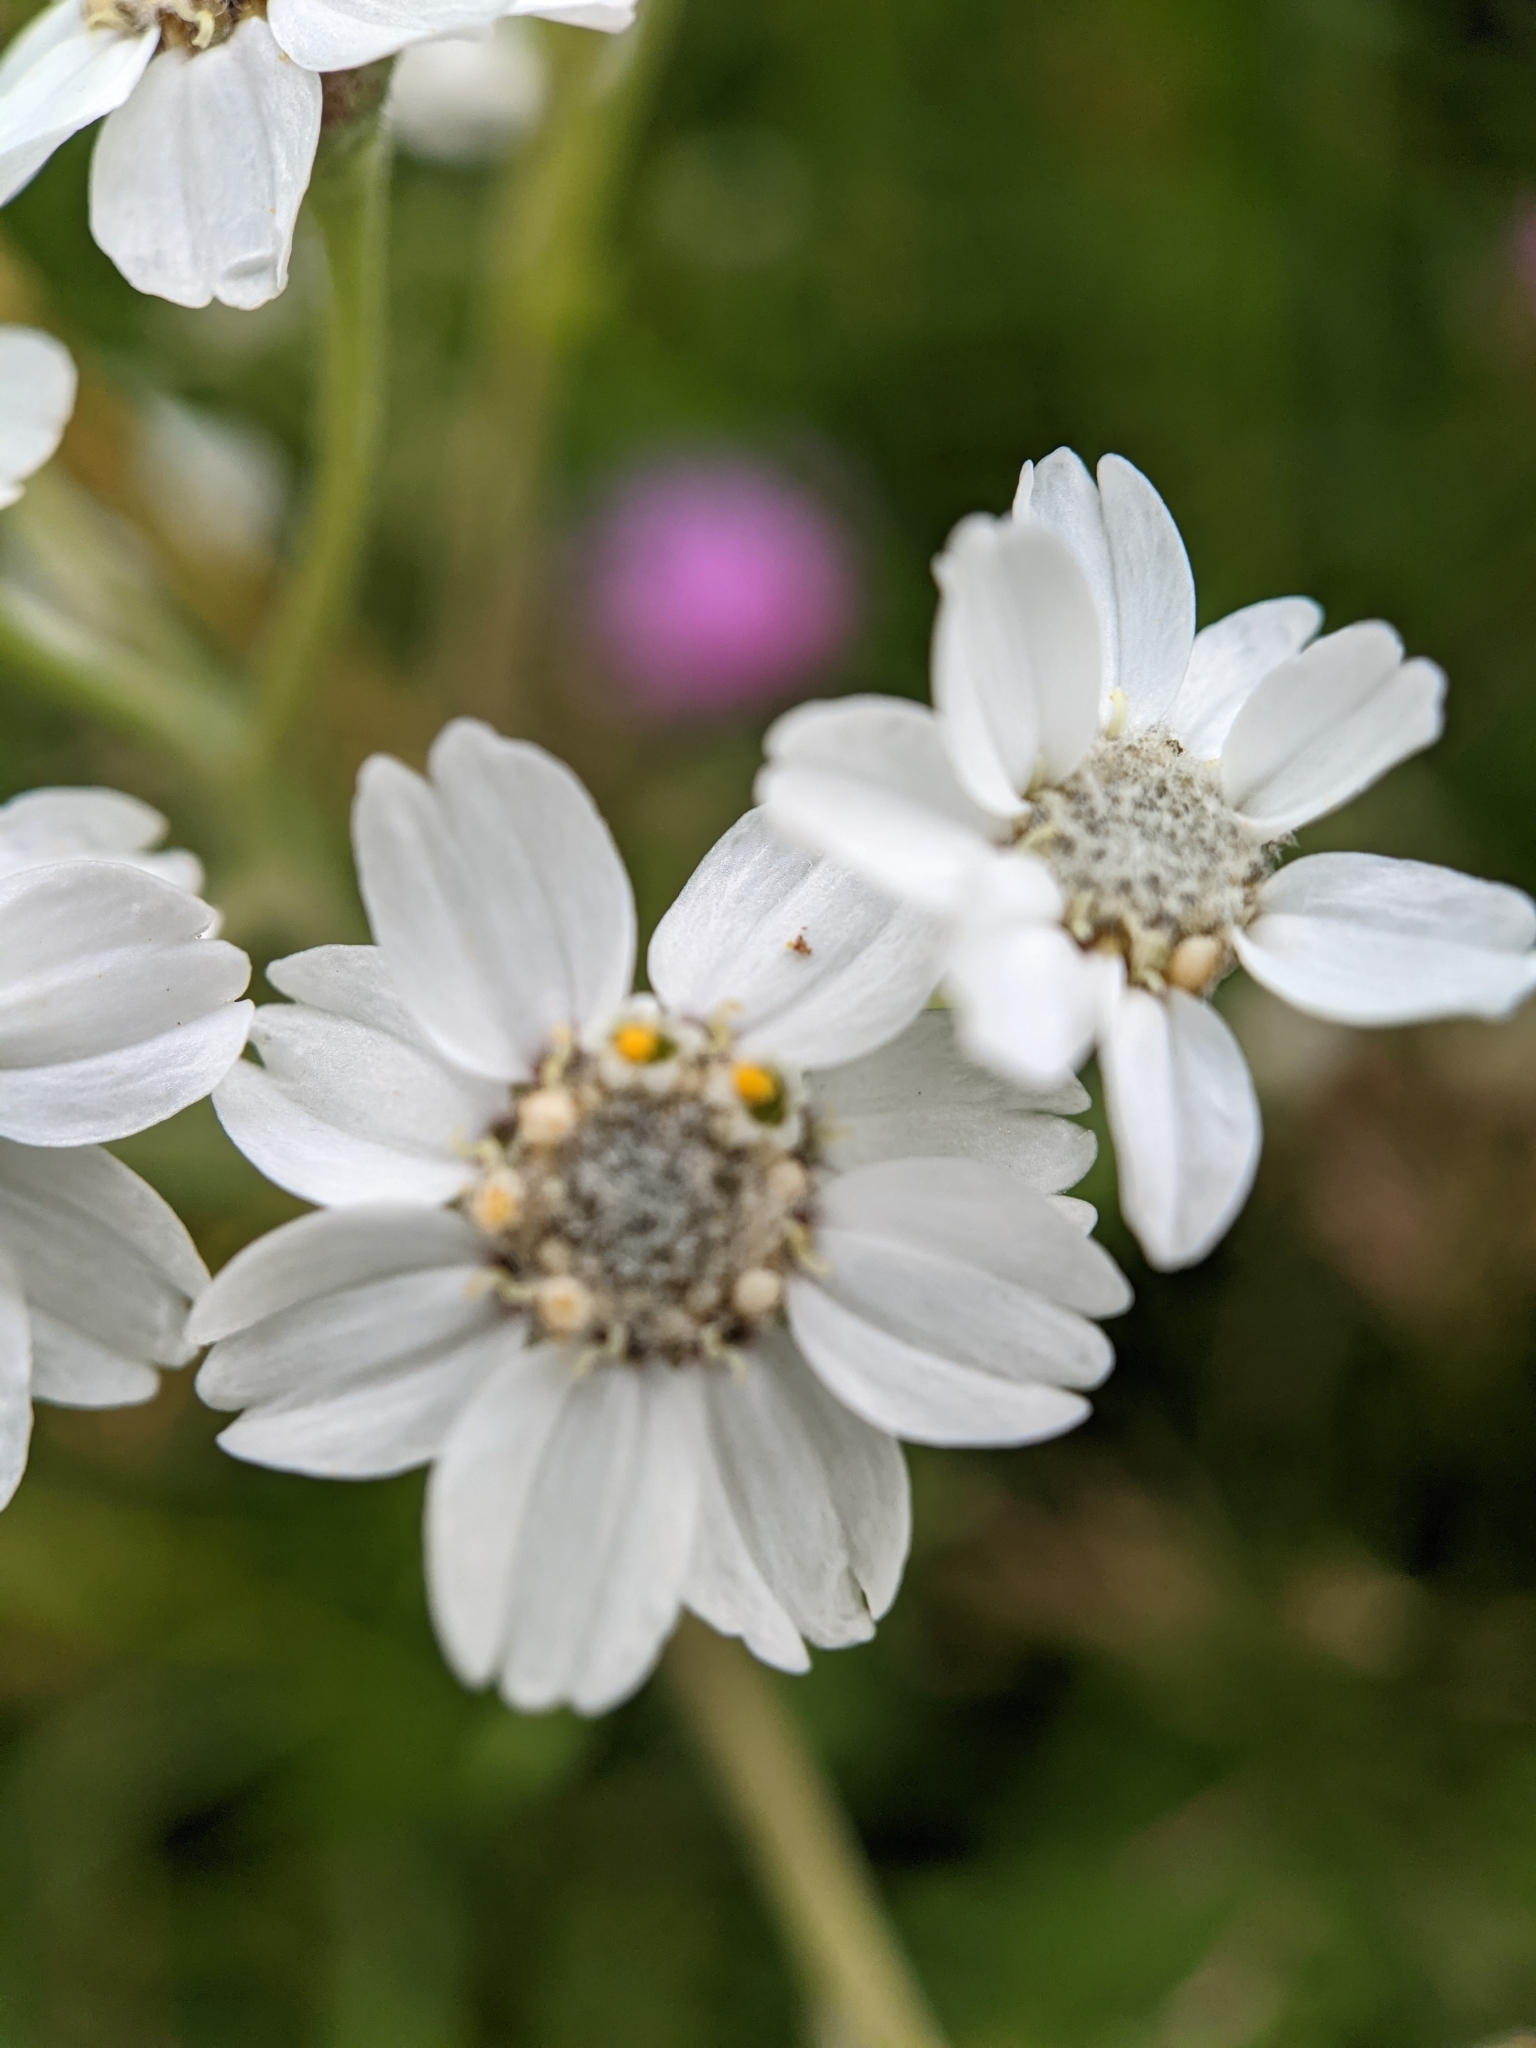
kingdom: Plantae
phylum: Tracheophyta
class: Magnoliopsida
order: Asterales
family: Asteraceae
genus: Achillea
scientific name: Achillea ptarmica
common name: Sneezeweed
